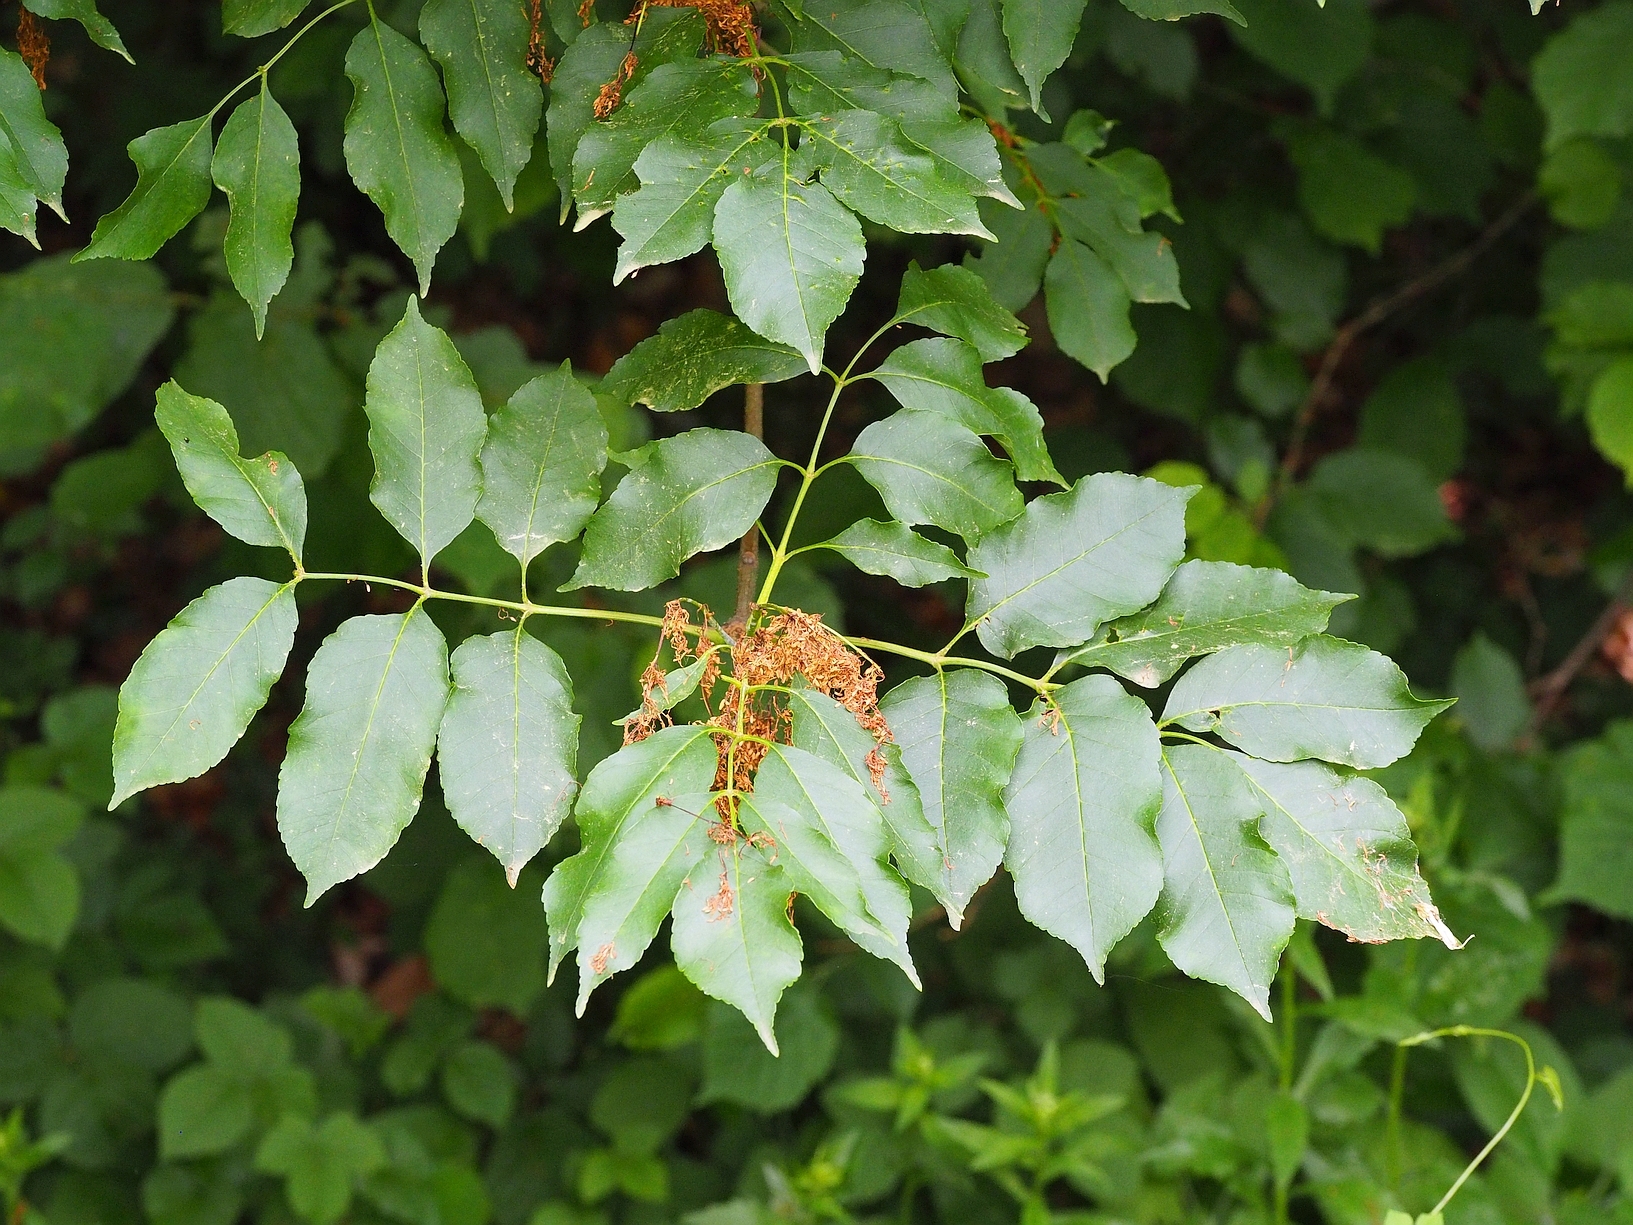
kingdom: Plantae
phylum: Tracheophyta
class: Magnoliopsida
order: Lamiales
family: Oleaceae
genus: Fraxinus
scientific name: Fraxinus ornus
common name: Manna ash
